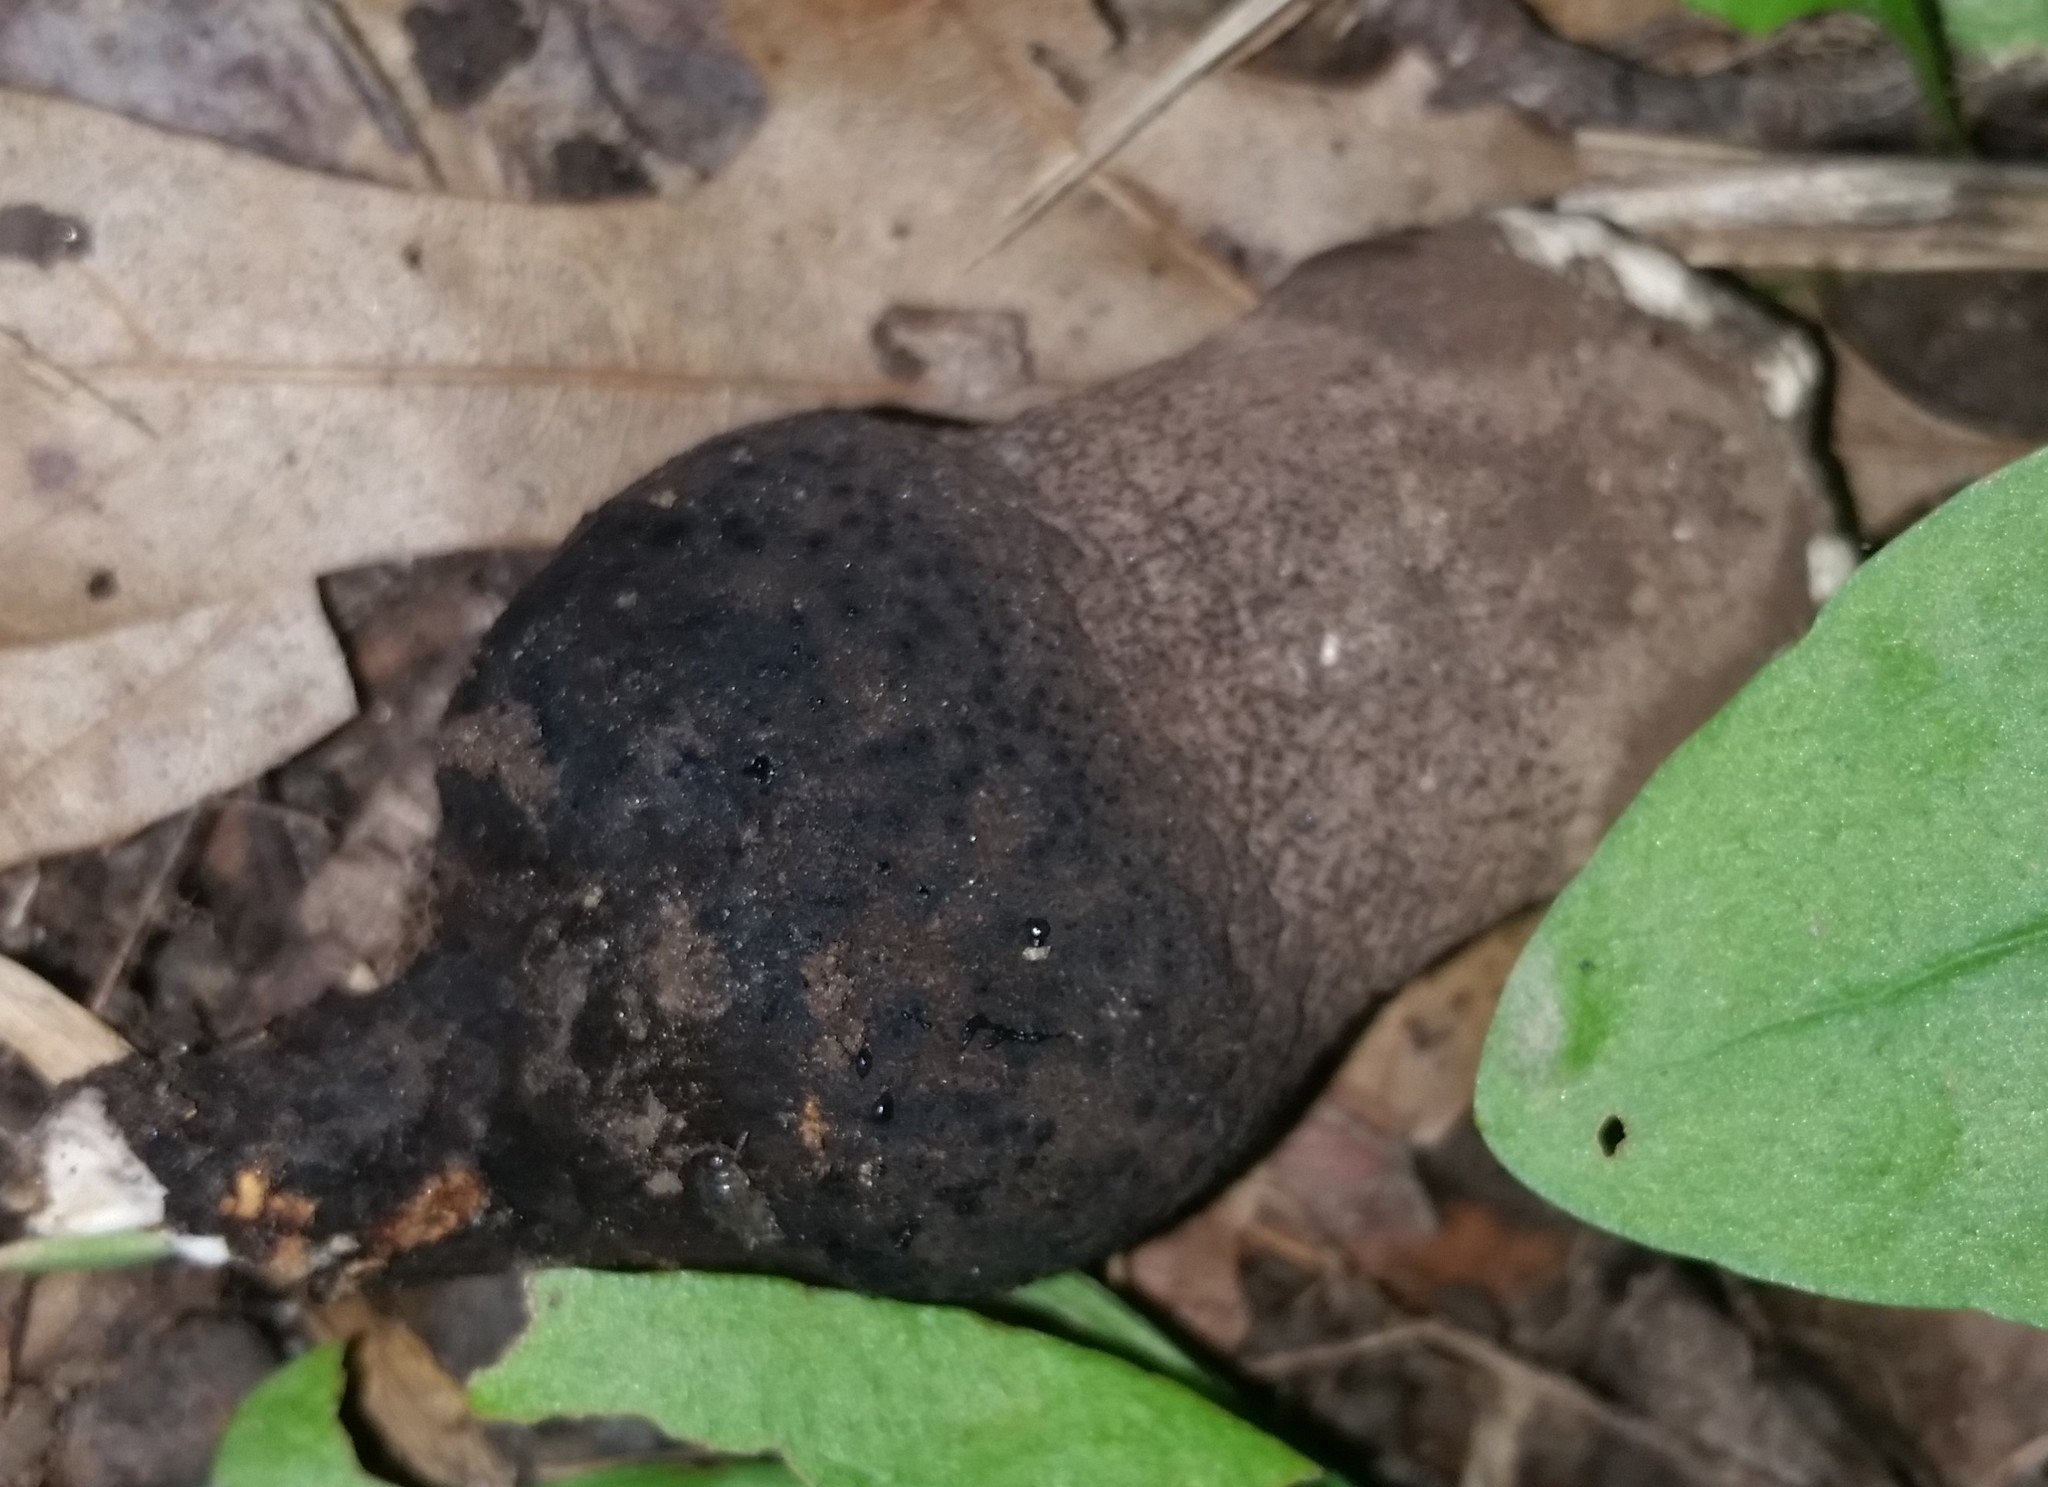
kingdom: Fungi
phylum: Ascomycota
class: Sordariomycetes
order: Xylariales
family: Xylariaceae
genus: Xylaria
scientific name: Xylaria polymorpha
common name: Dead man's fingers
